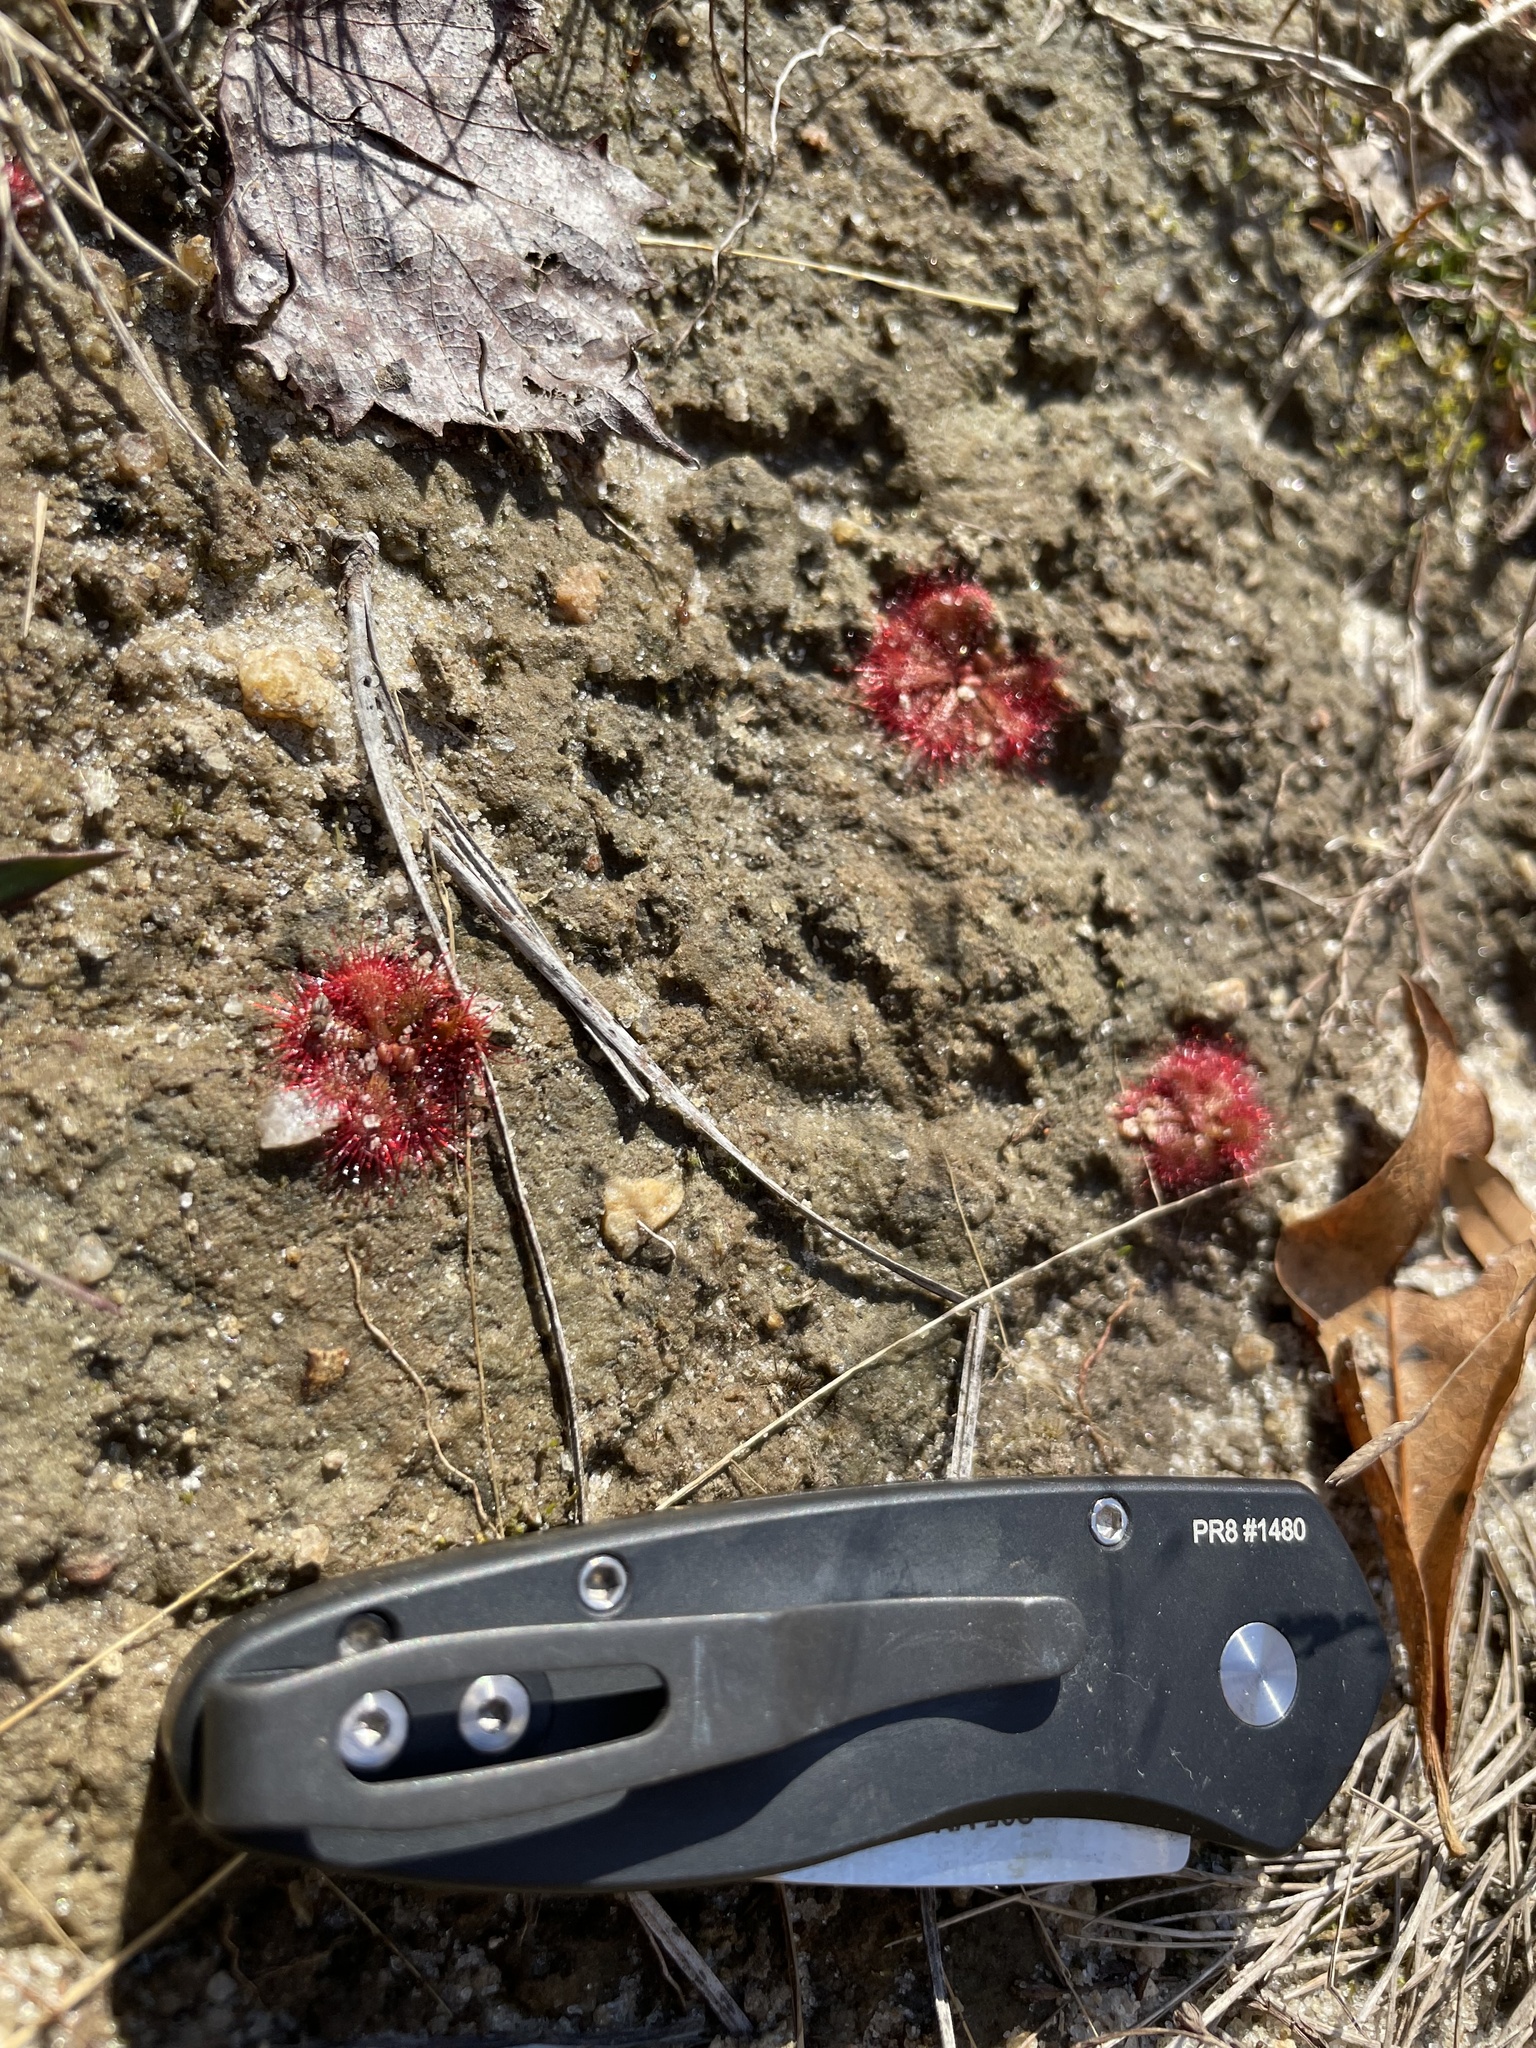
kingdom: Plantae
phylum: Tracheophyta
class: Magnoliopsida
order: Caryophyllales
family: Droseraceae
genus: Drosera
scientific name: Drosera brevifolia
